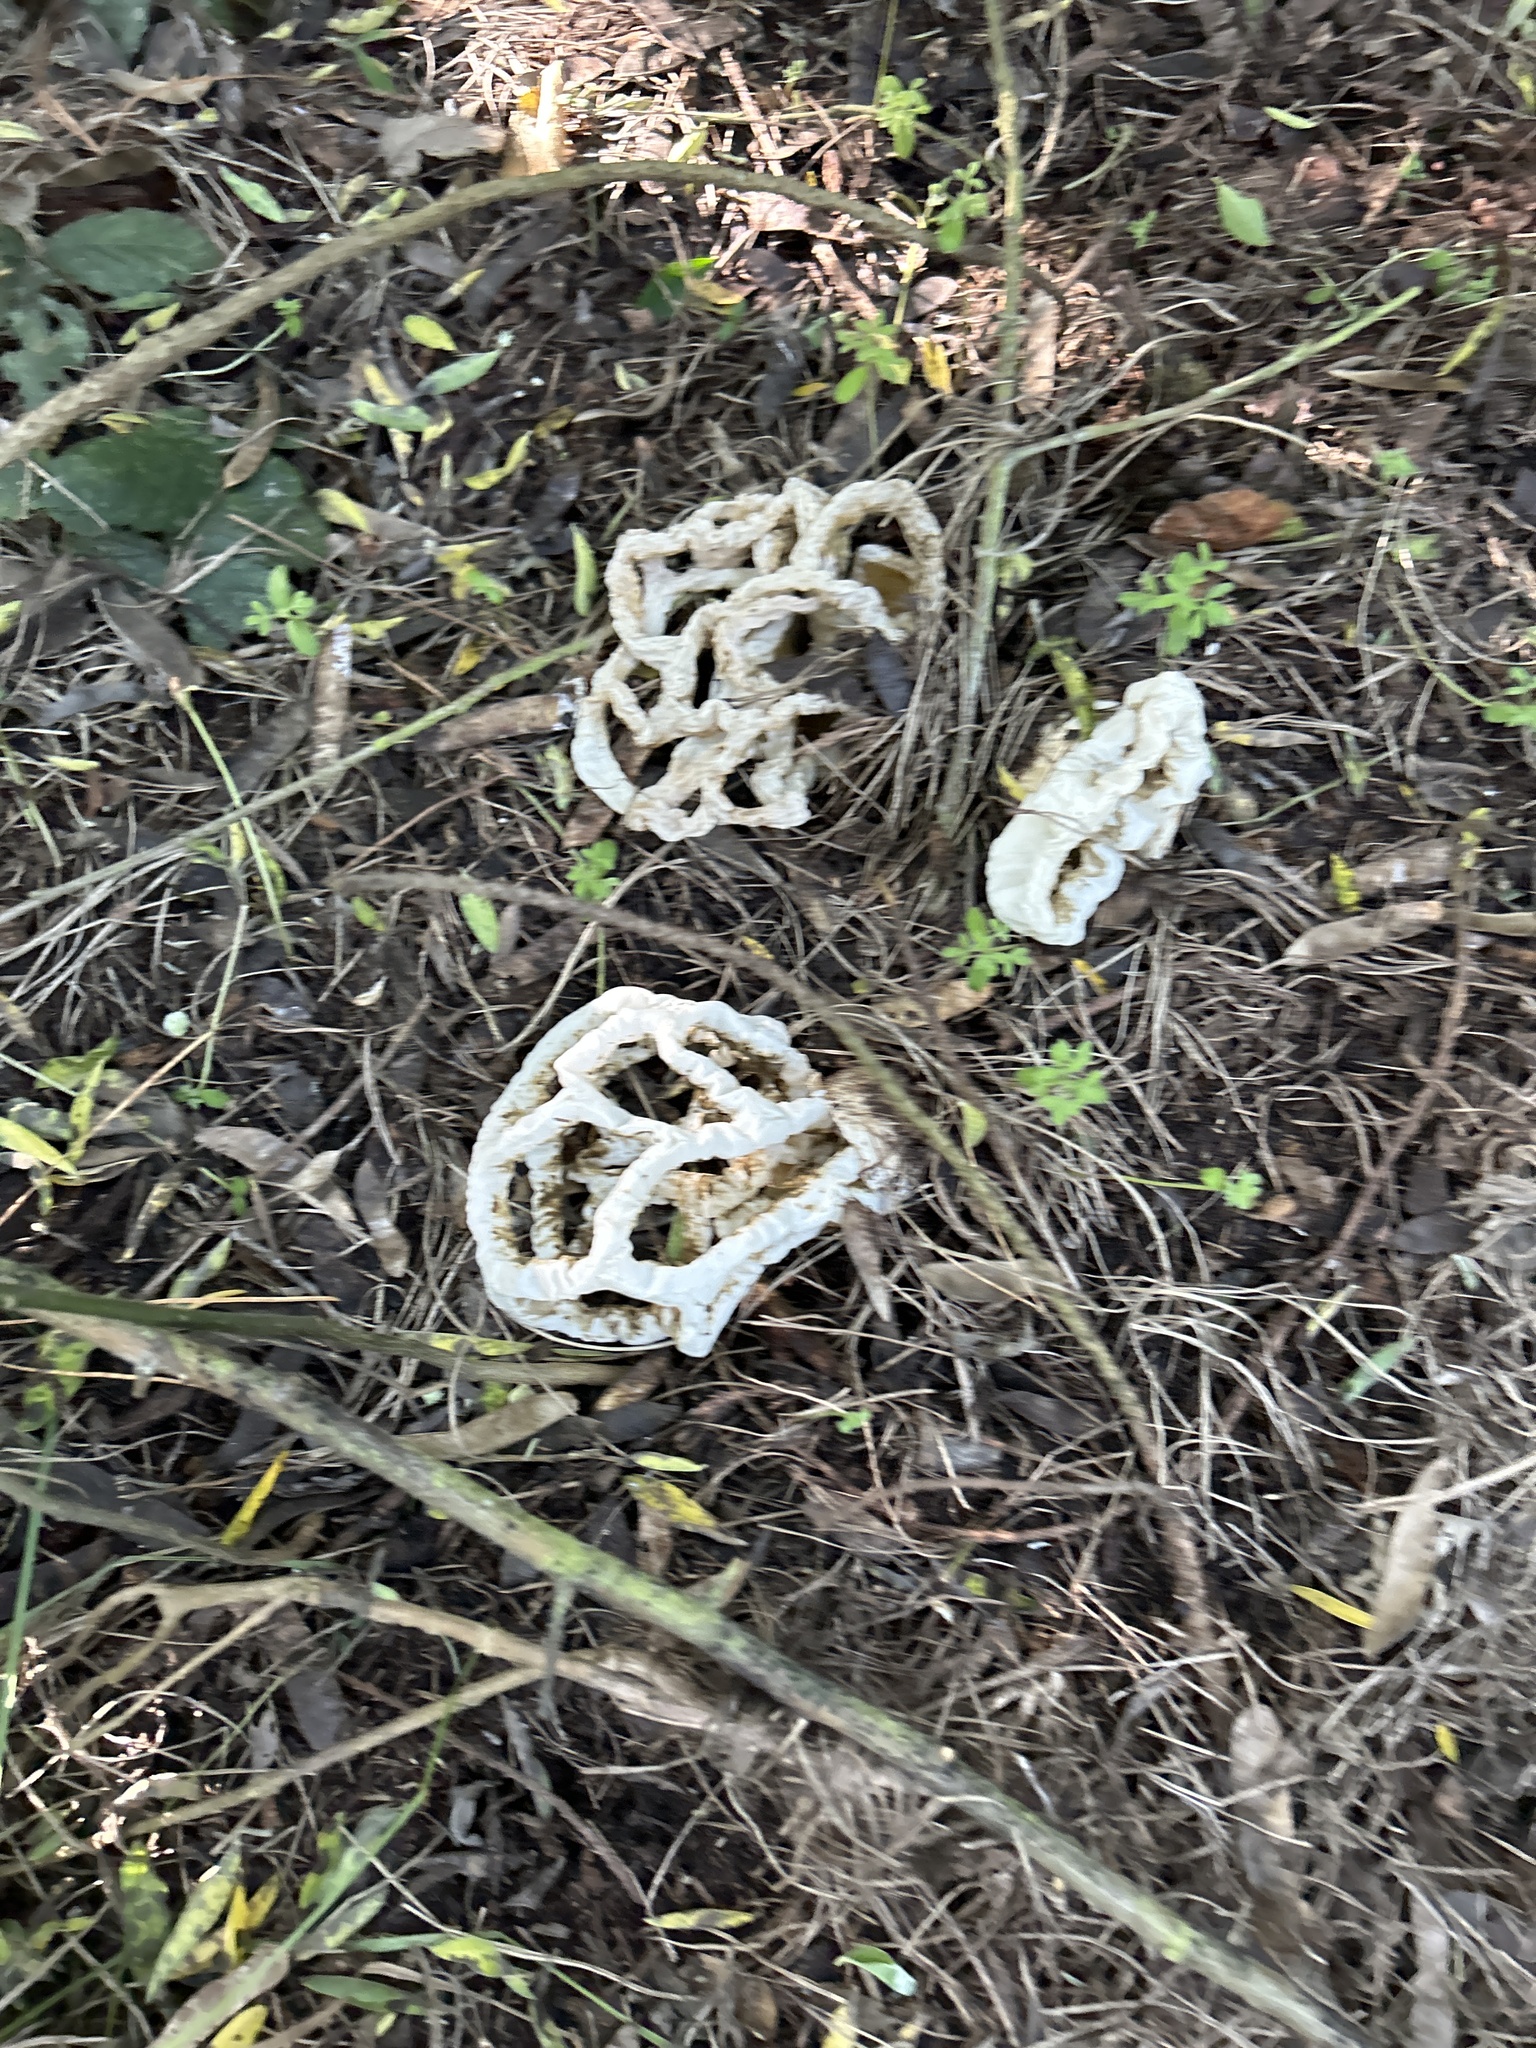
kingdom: Fungi
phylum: Basidiomycota
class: Agaricomycetes
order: Phallales
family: Phallaceae
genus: Ileodictyon
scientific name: Ileodictyon cibarium
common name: Basket fungus
